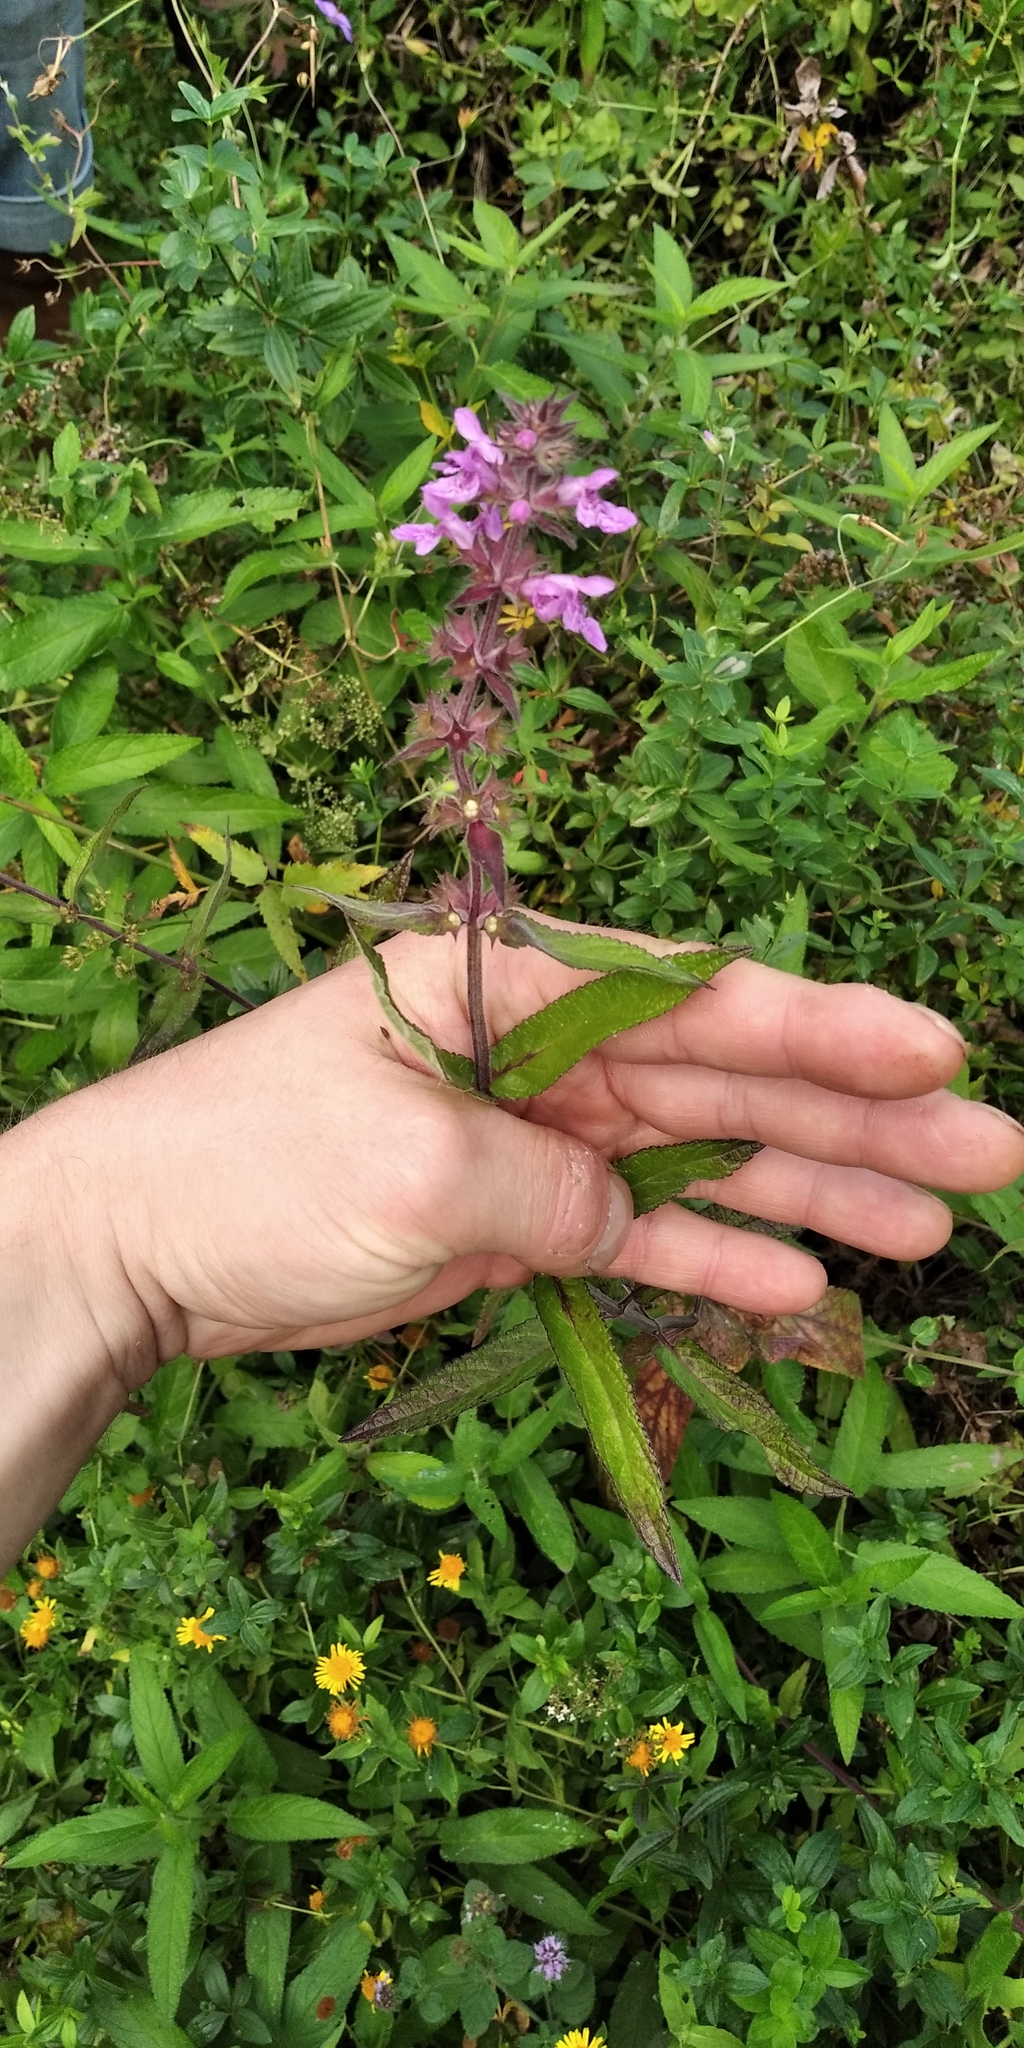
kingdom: Plantae
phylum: Tracheophyta
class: Magnoliopsida
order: Lamiales
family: Lamiaceae
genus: Stachys
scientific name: Stachys palustris
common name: Marsh woundwort
